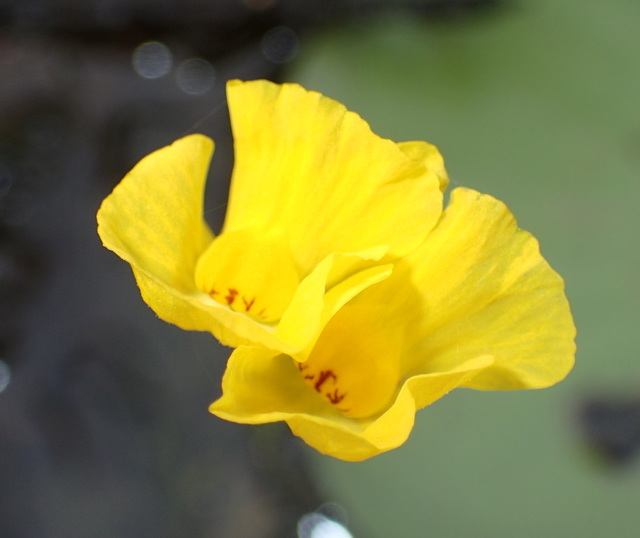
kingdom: Plantae
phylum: Tracheophyta
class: Magnoliopsida
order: Lamiales
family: Lentibulariaceae
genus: Utricularia
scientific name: Utricularia gibba
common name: Humped bladderwort
